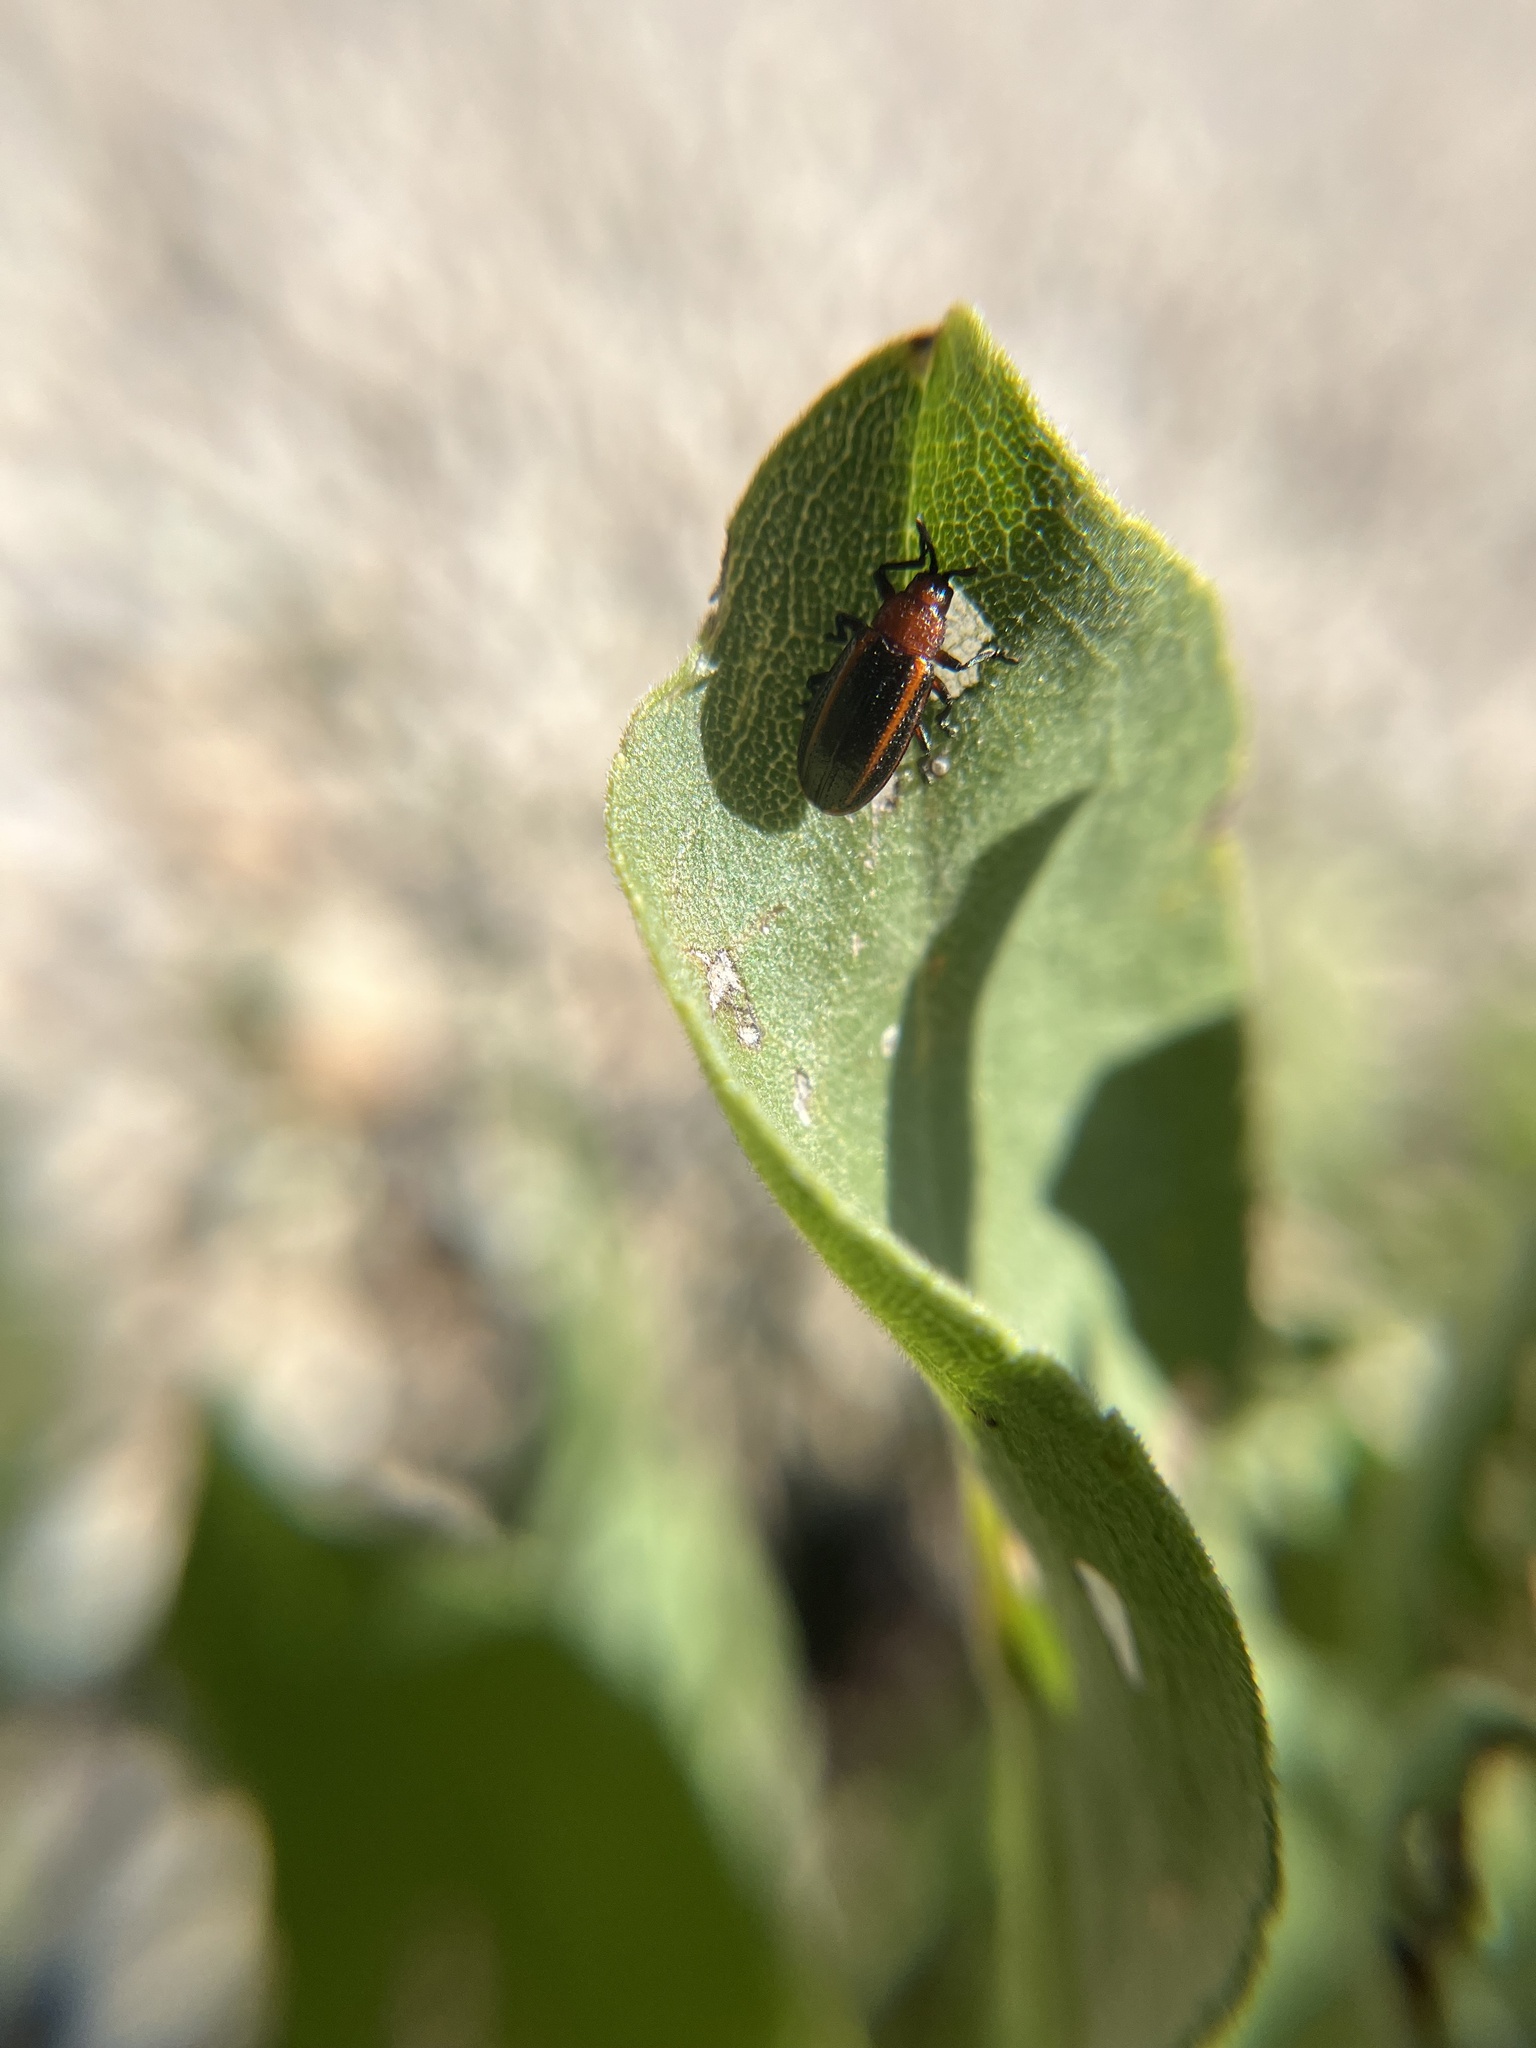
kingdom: Animalia
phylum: Arthropoda
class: Insecta
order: Coleoptera
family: Chrysomelidae
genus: Microrhopala
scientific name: Microrhopala vittata
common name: Goldenrod leaf miner beetle
